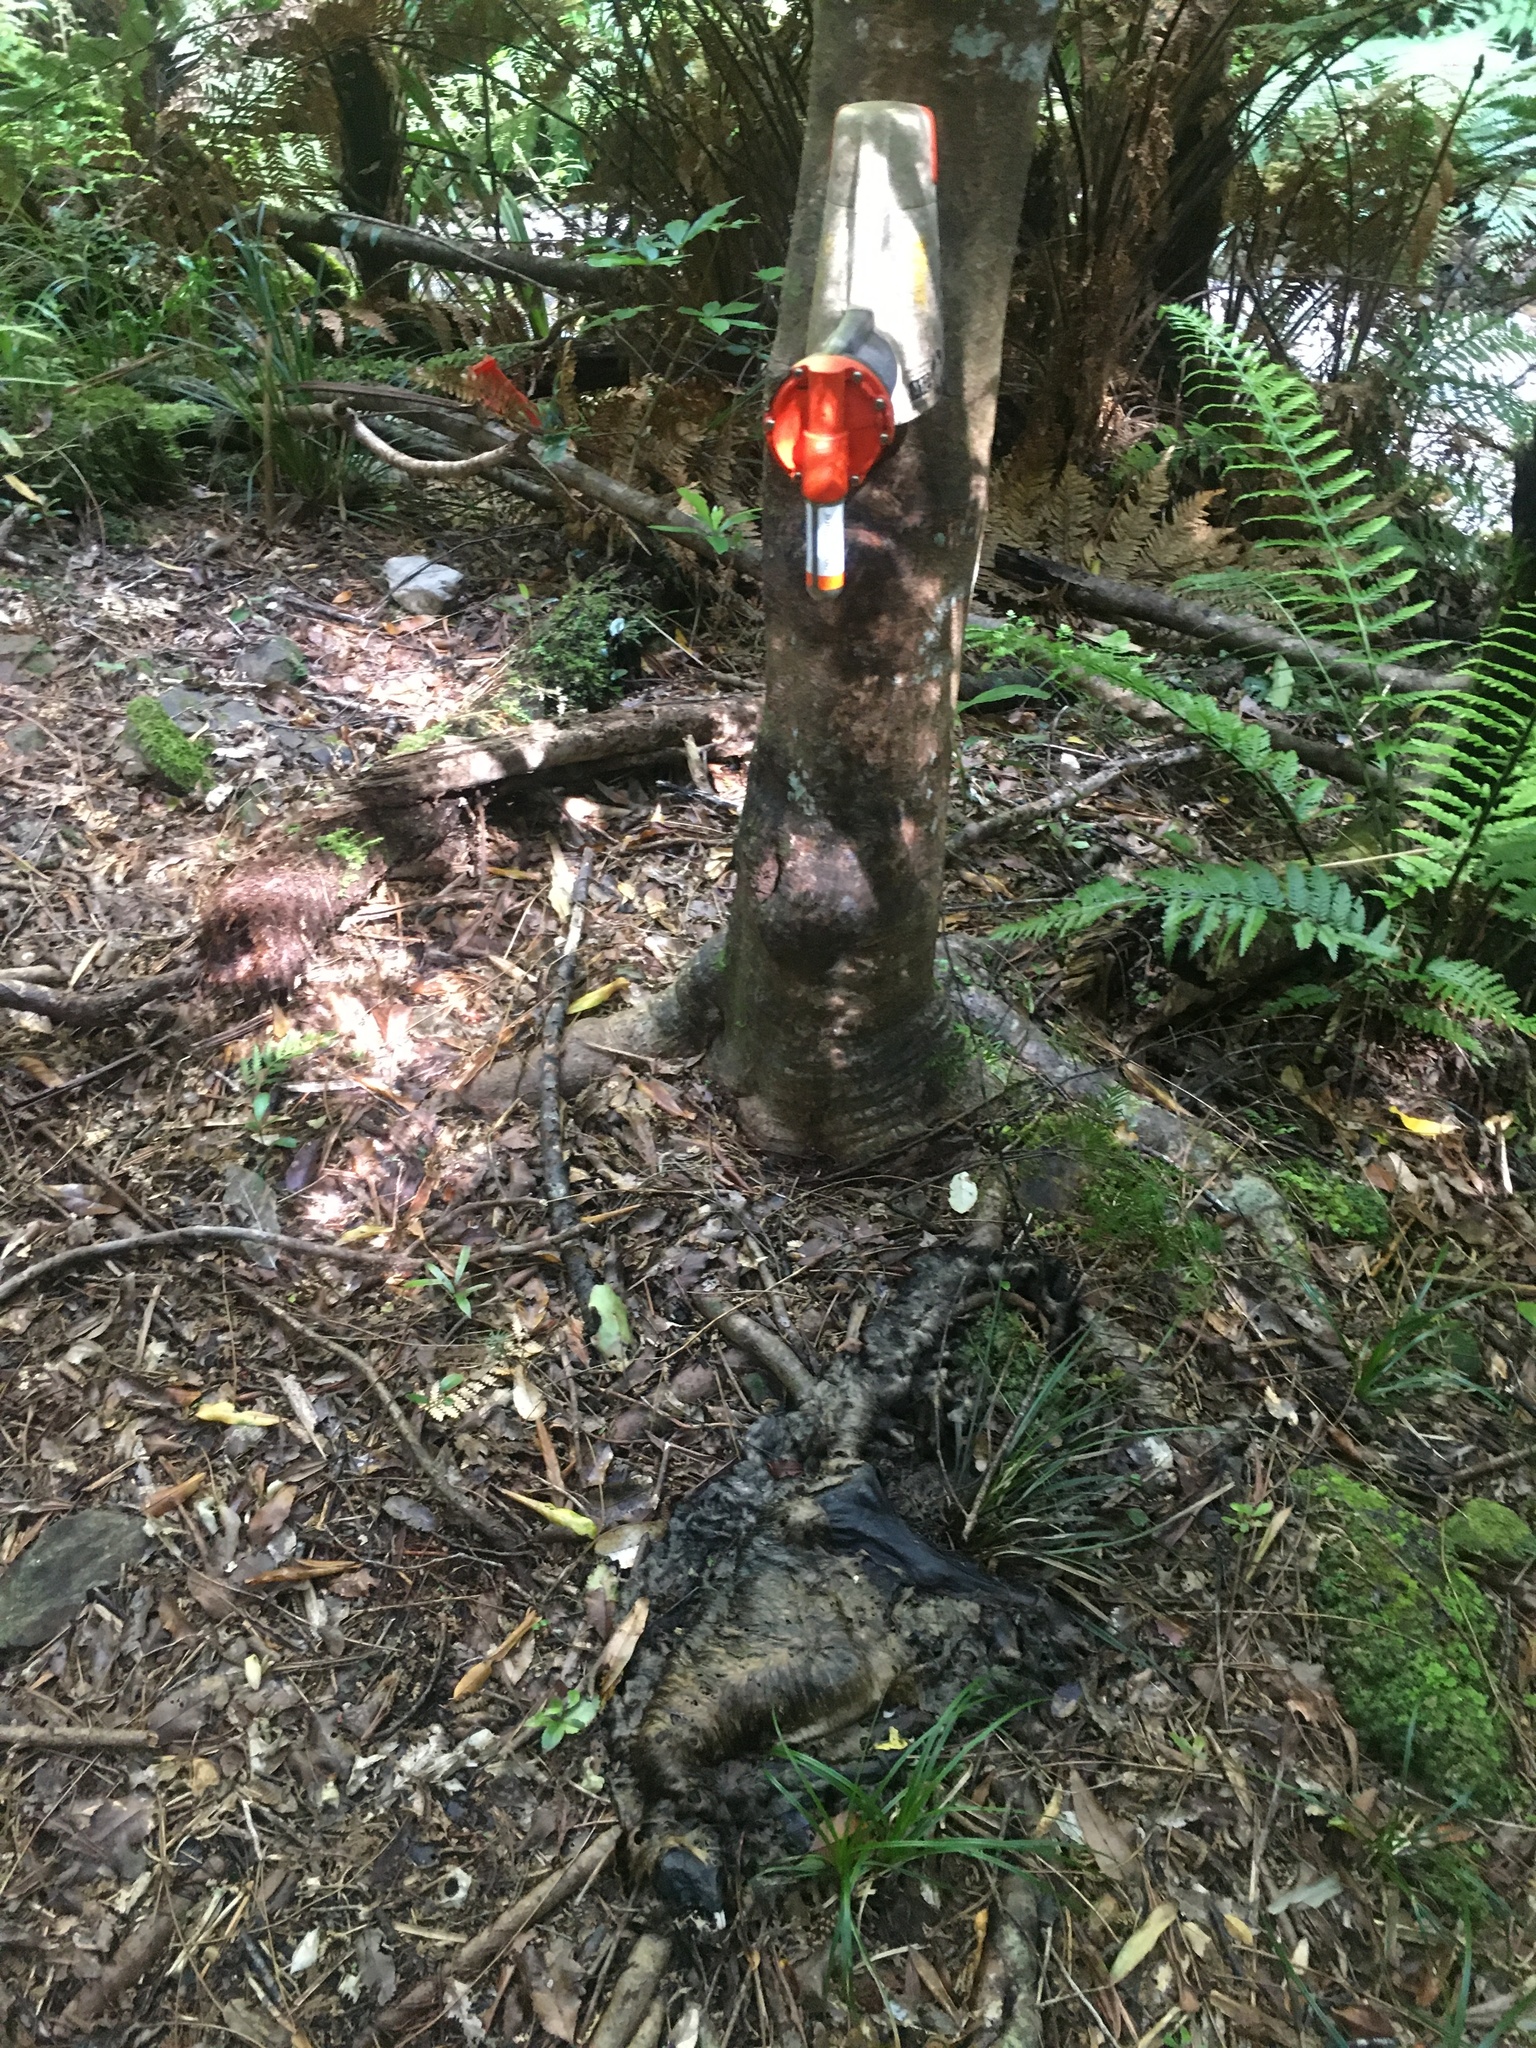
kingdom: Animalia
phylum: Chordata
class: Mammalia
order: Diprotodontia
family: Phalangeridae
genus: Trichosurus
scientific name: Trichosurus vulpecula
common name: Common brushtail
